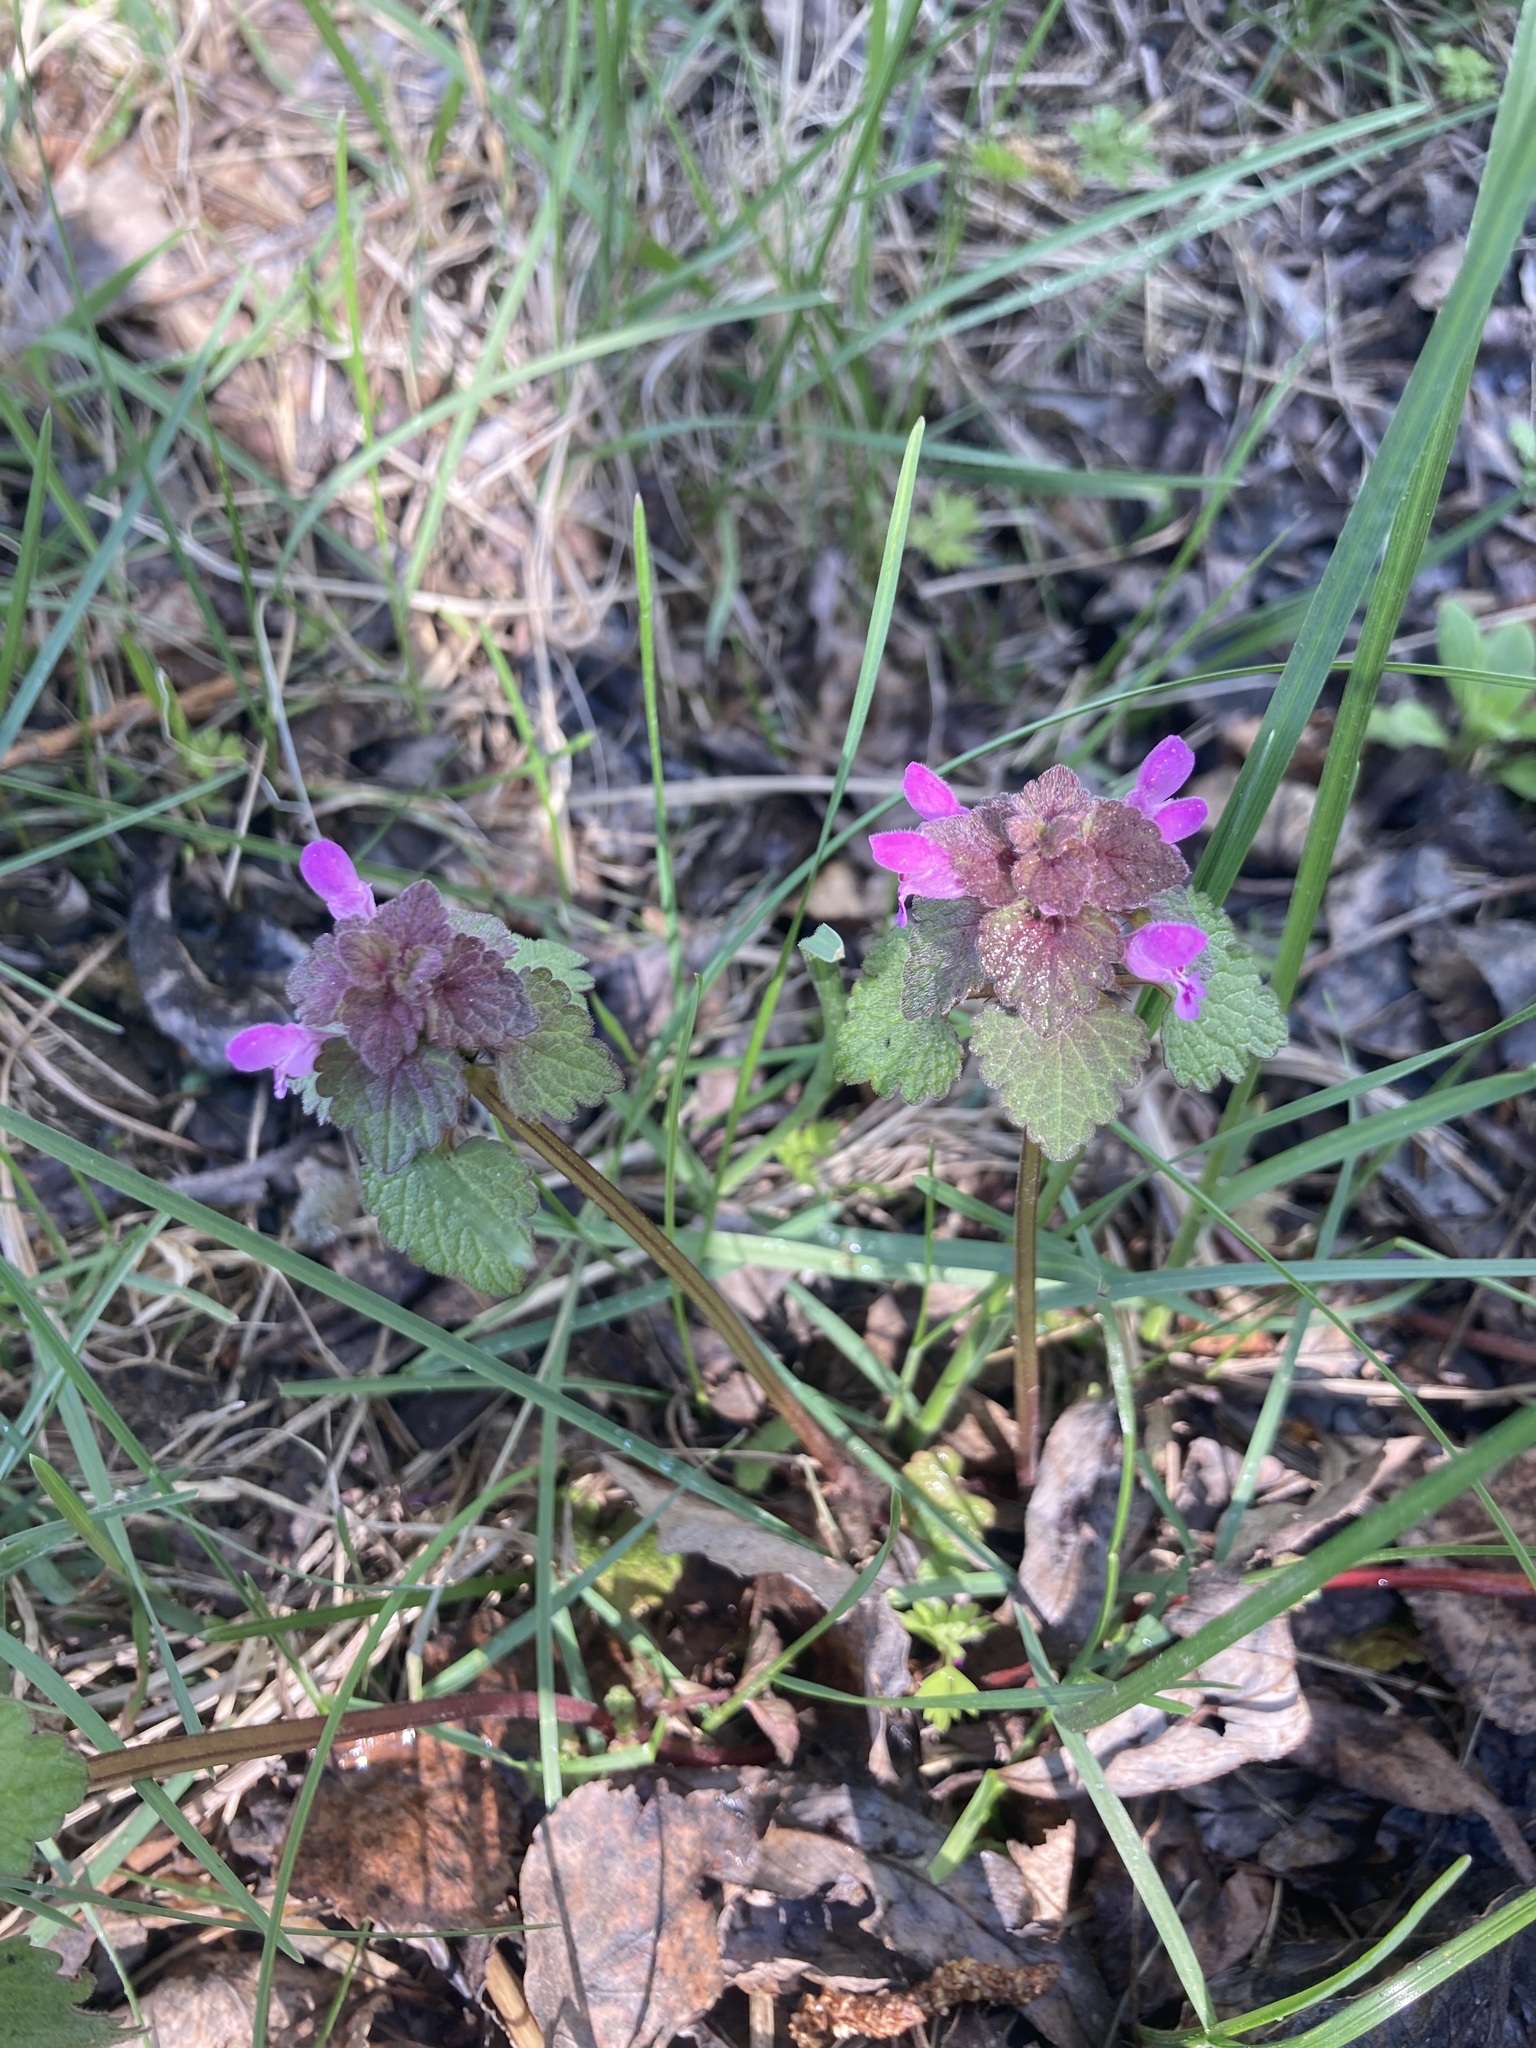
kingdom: Plantae
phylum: Tracheophyta
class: Magnoliopsida
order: Lamiales
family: Lamiaceae
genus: Lamium
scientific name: Lamium purpureum
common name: Red dead-nettle
